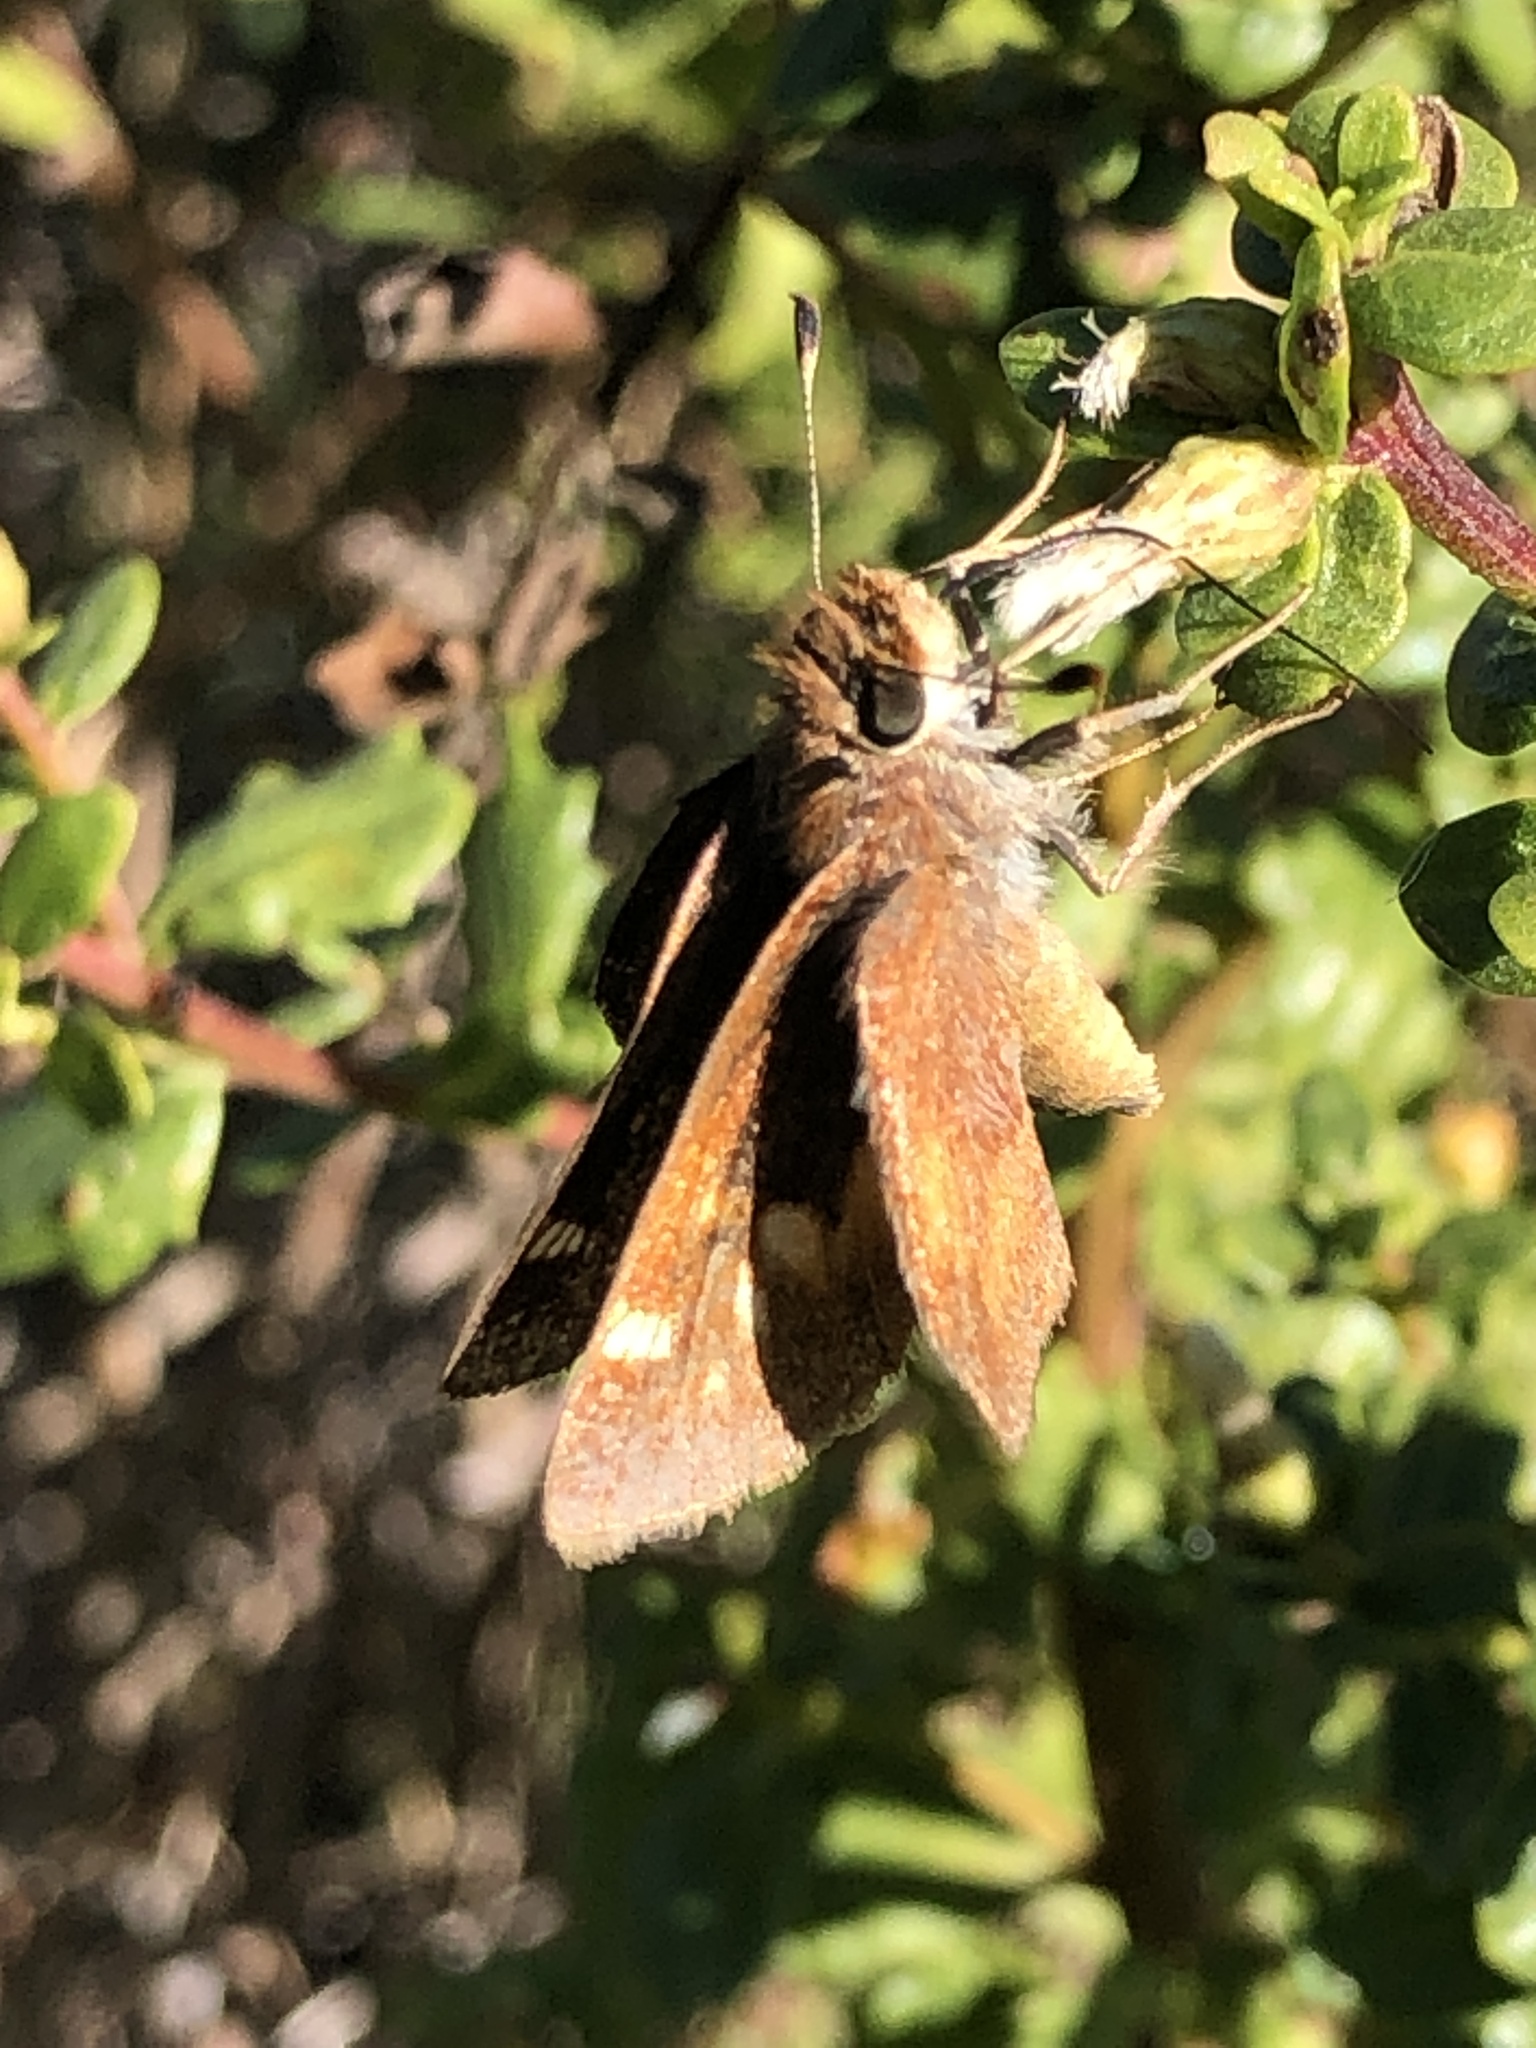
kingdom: Animalia
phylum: Arthropoda
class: Insecta
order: Lepidoptera
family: Hesperiidae
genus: Lon
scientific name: Lon melane
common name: Umber skipper
